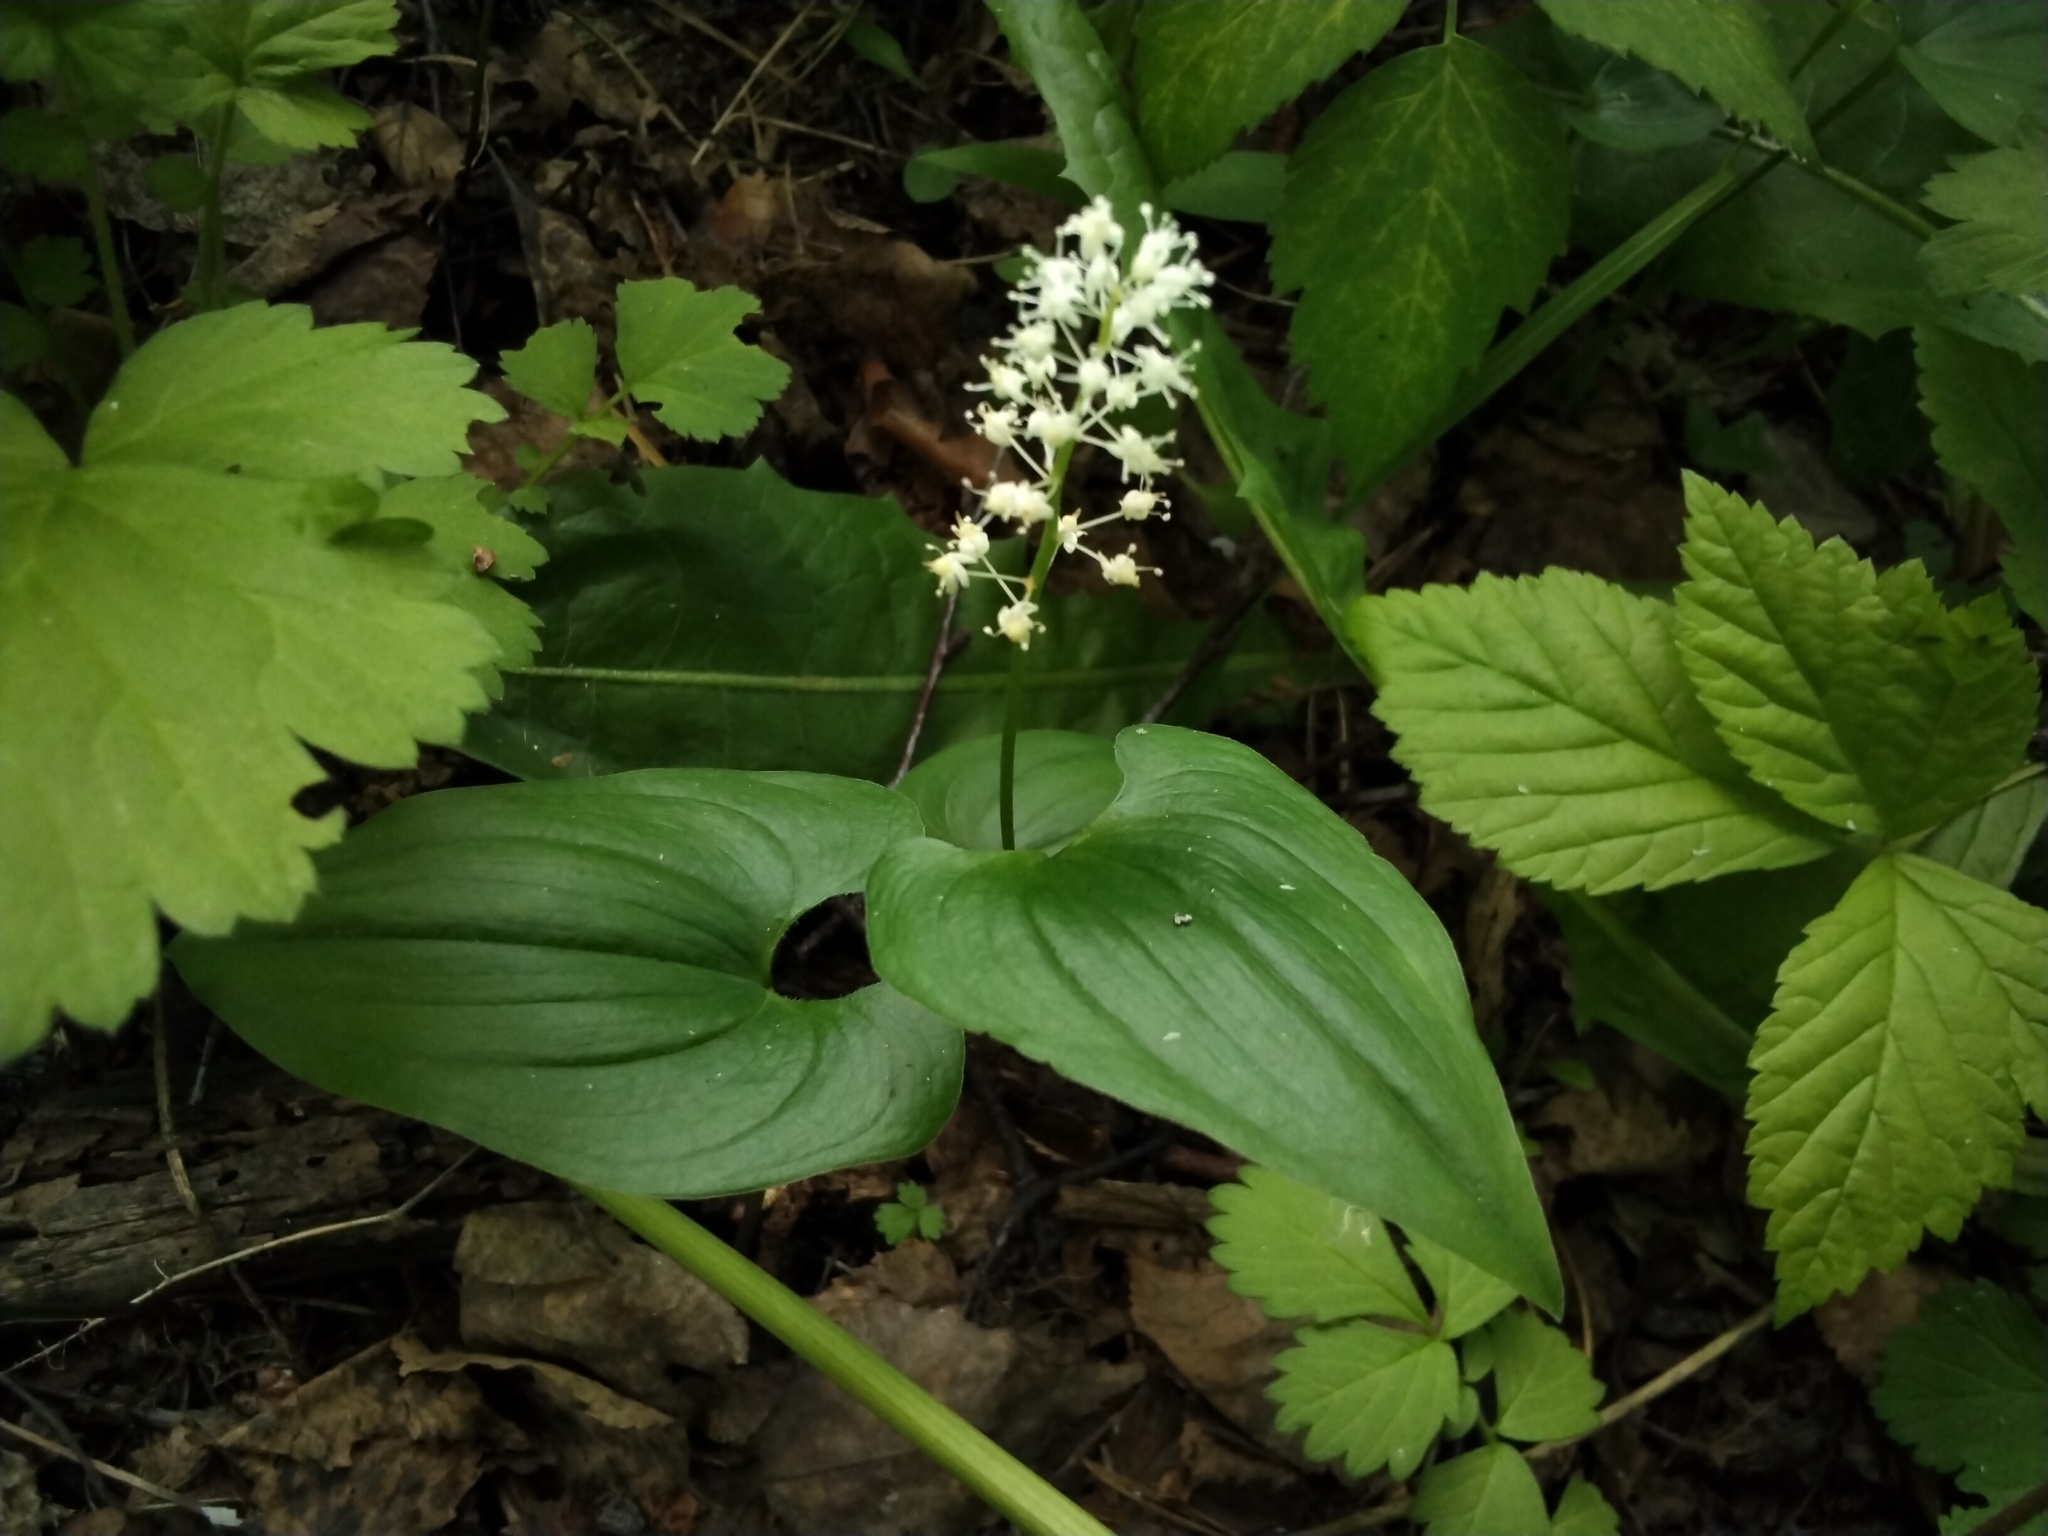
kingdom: Plantae
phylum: Tracheophyta
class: Liliopsida
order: Asparagales
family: Asparagaceae
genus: Maianthemum
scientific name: Maianthemum bifolium
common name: May lily
